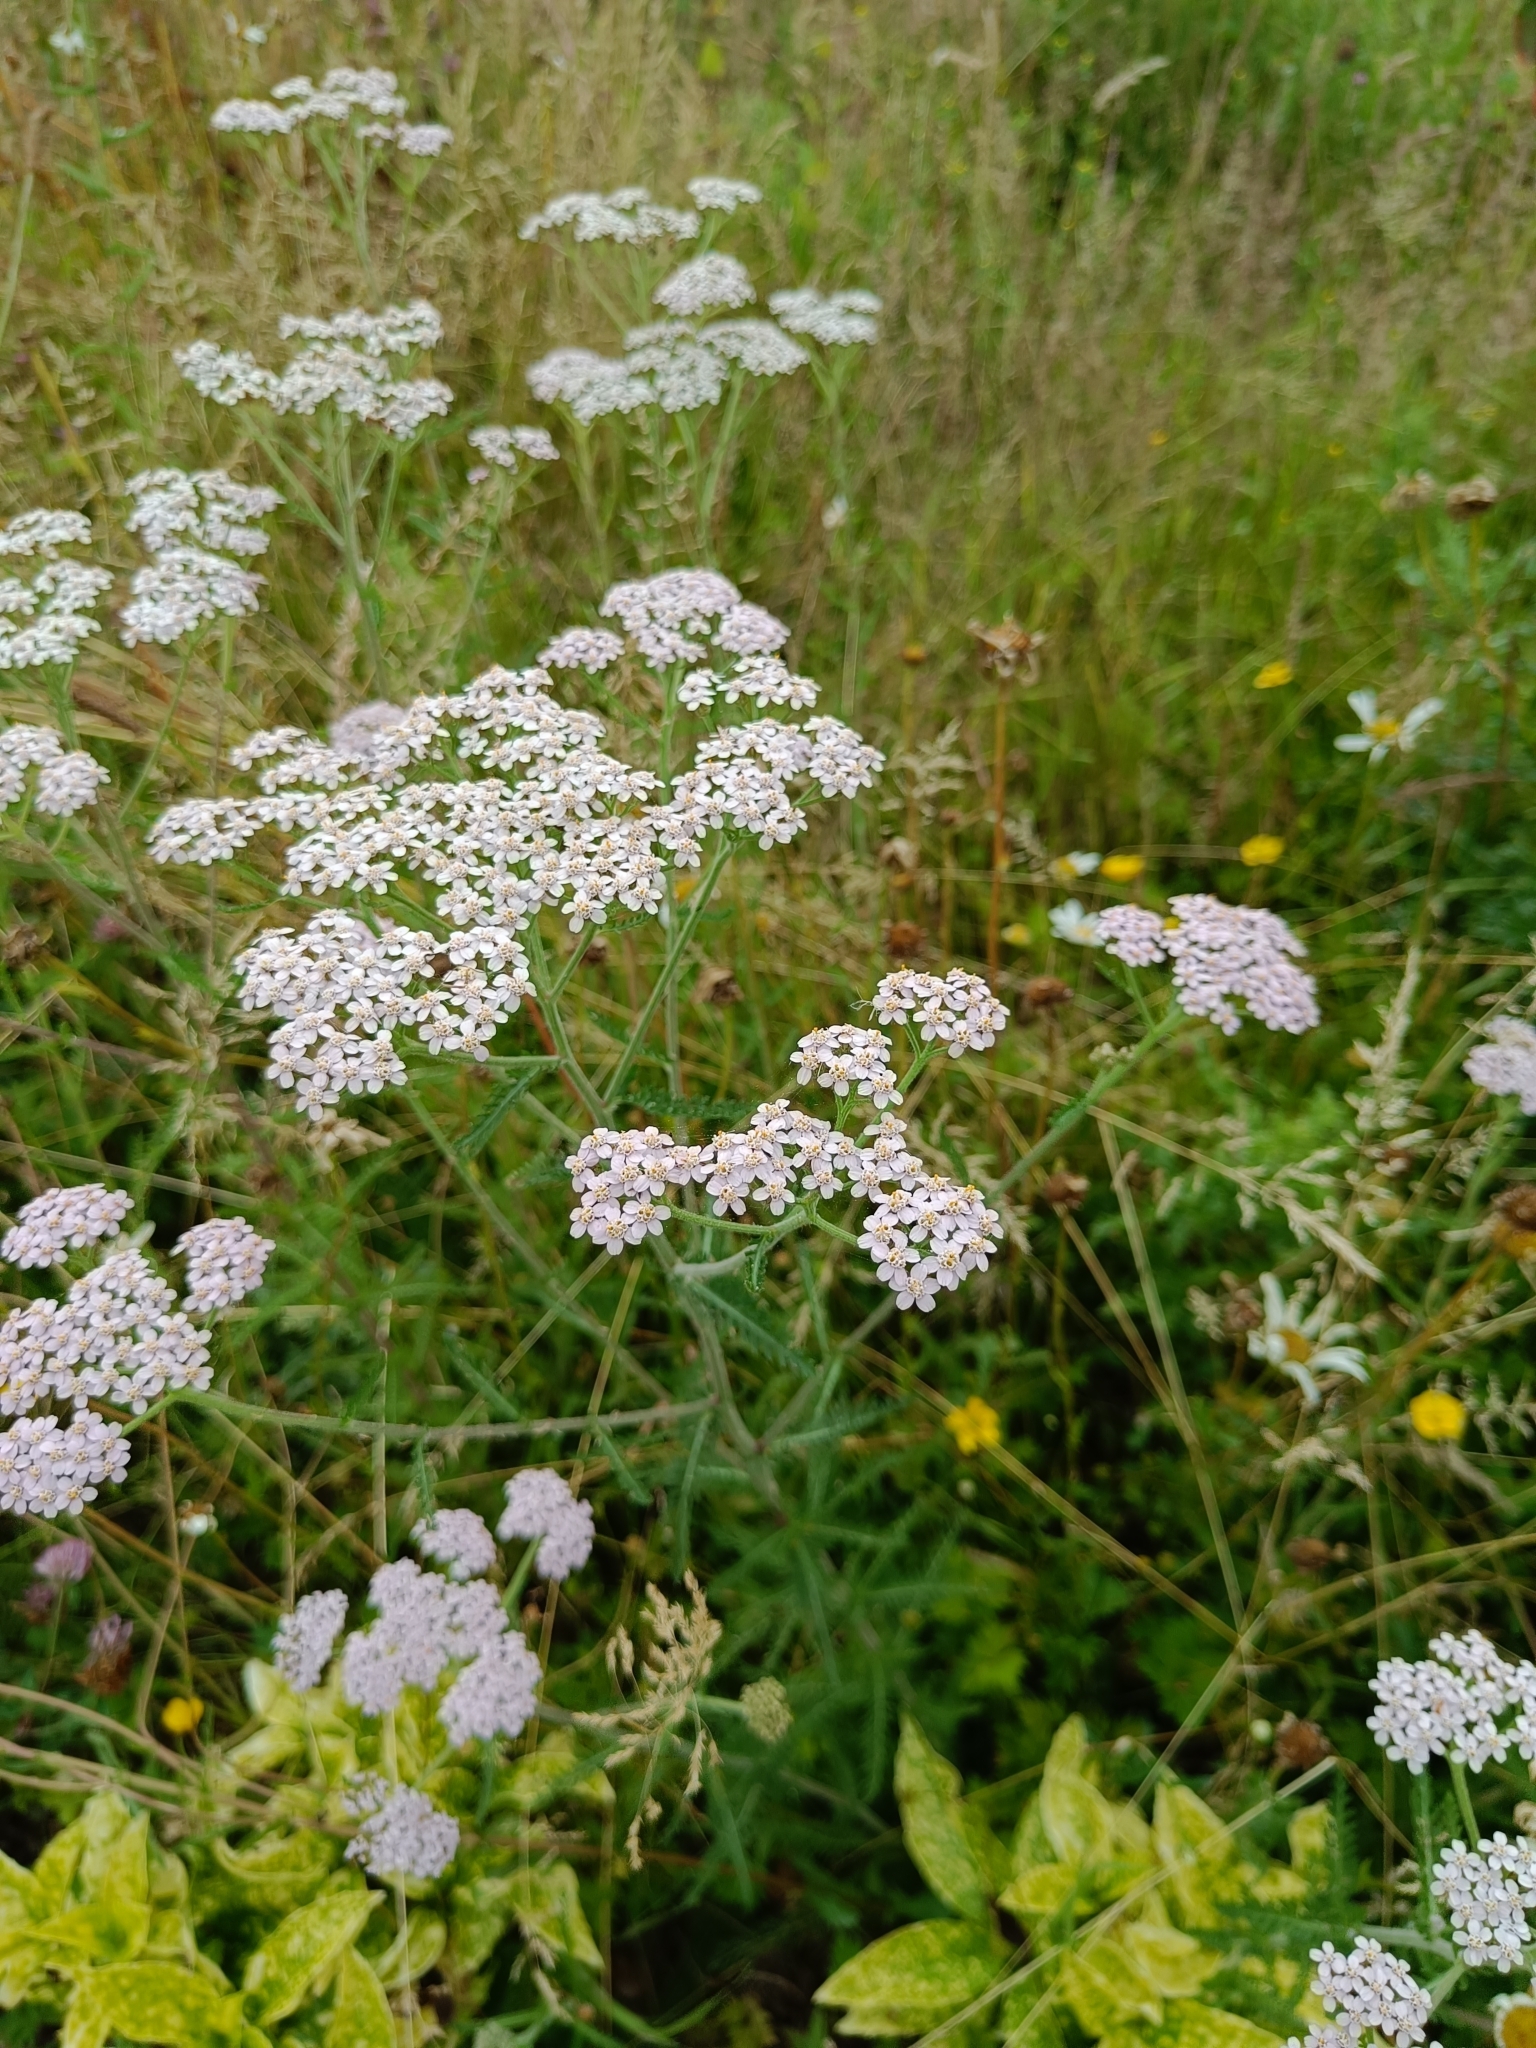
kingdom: Plantae
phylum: Tracheophyta
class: Magnoliopsida
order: Asterales
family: Asteraceae
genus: Achillea
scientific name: Achillea millefolium
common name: Yarrow
